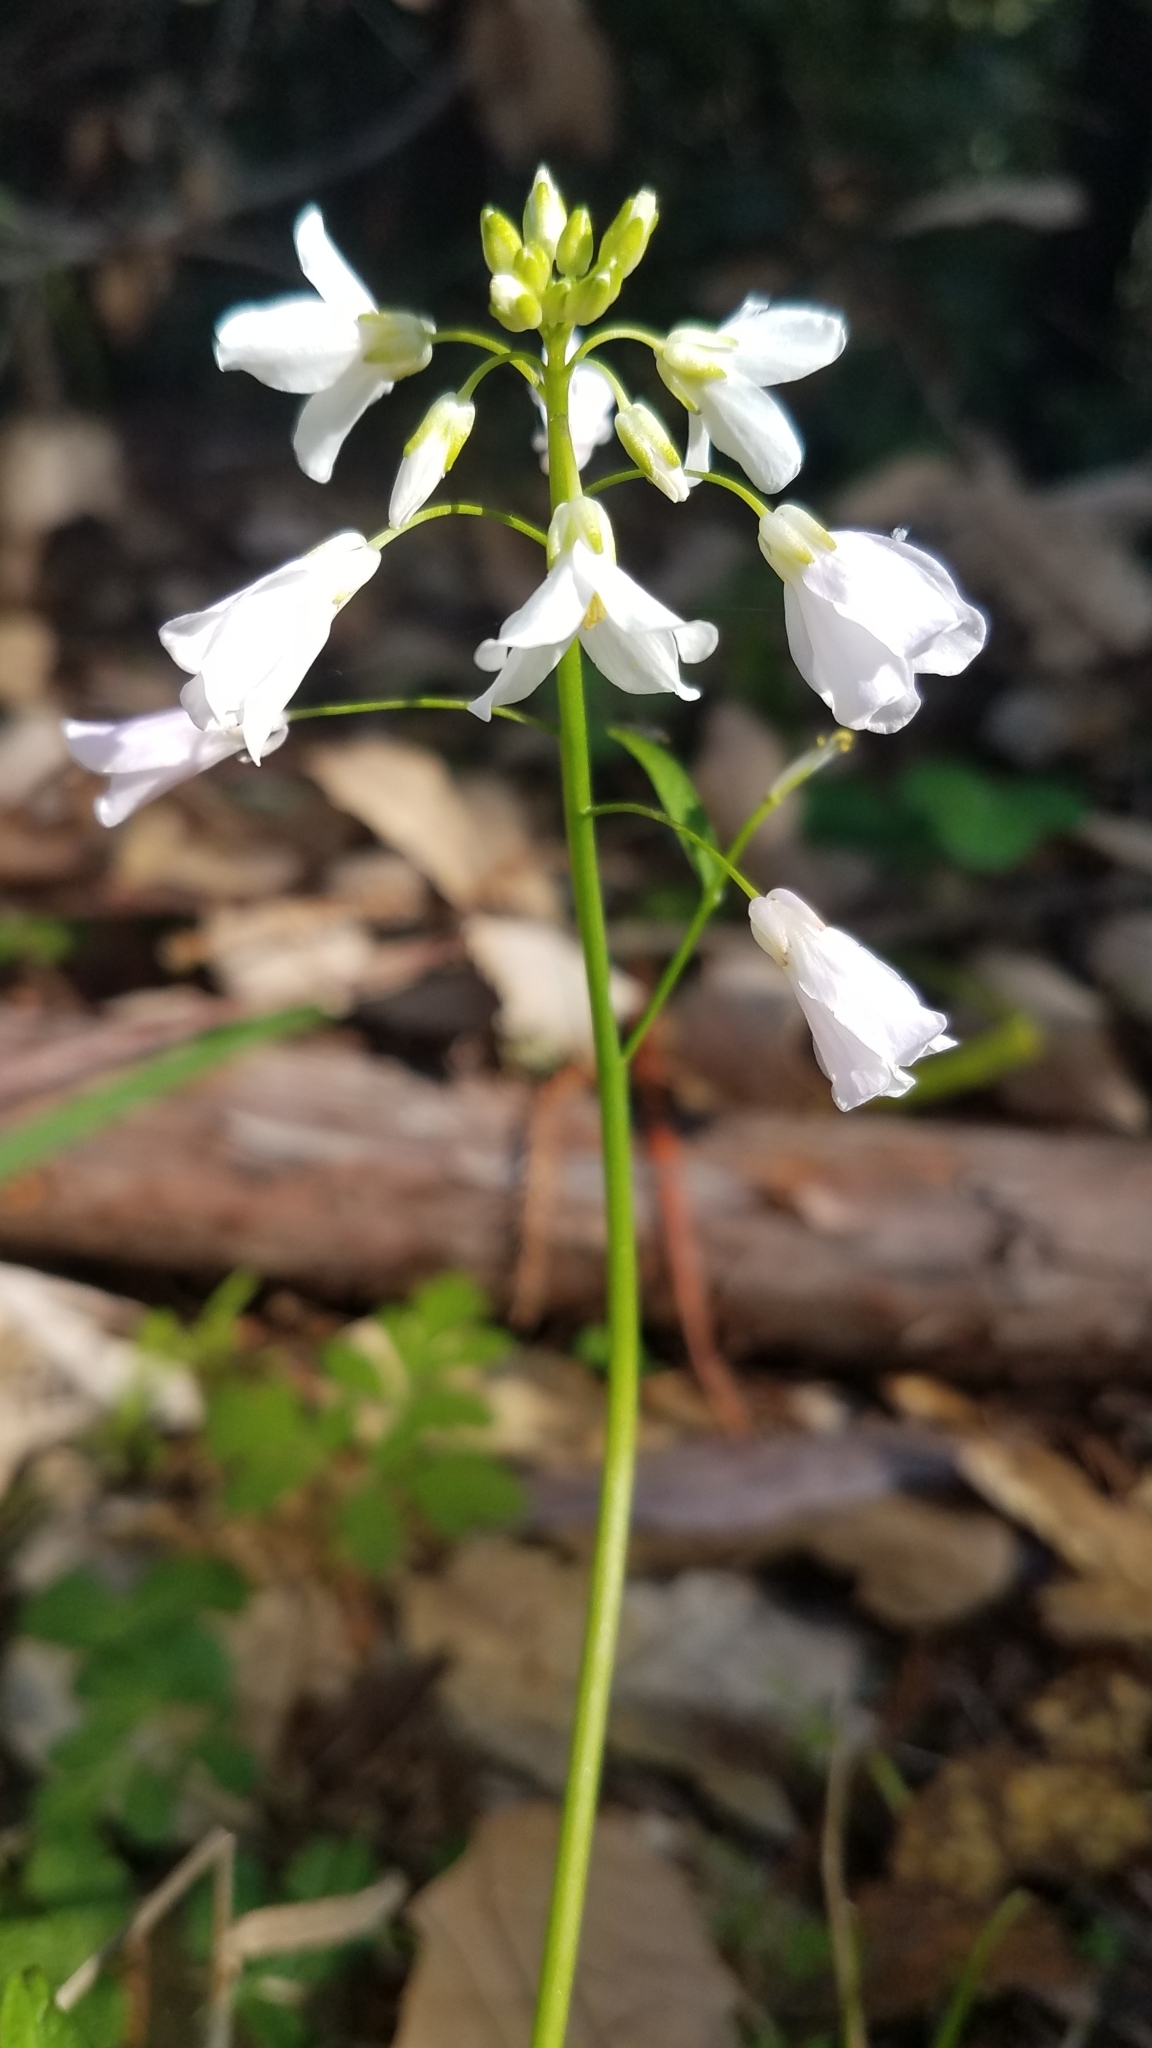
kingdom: Plantae
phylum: Tracheophyta
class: Magnoliopsida
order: Brassicales
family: Brassicaceae
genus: Cardamine
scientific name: Cardamine californica
